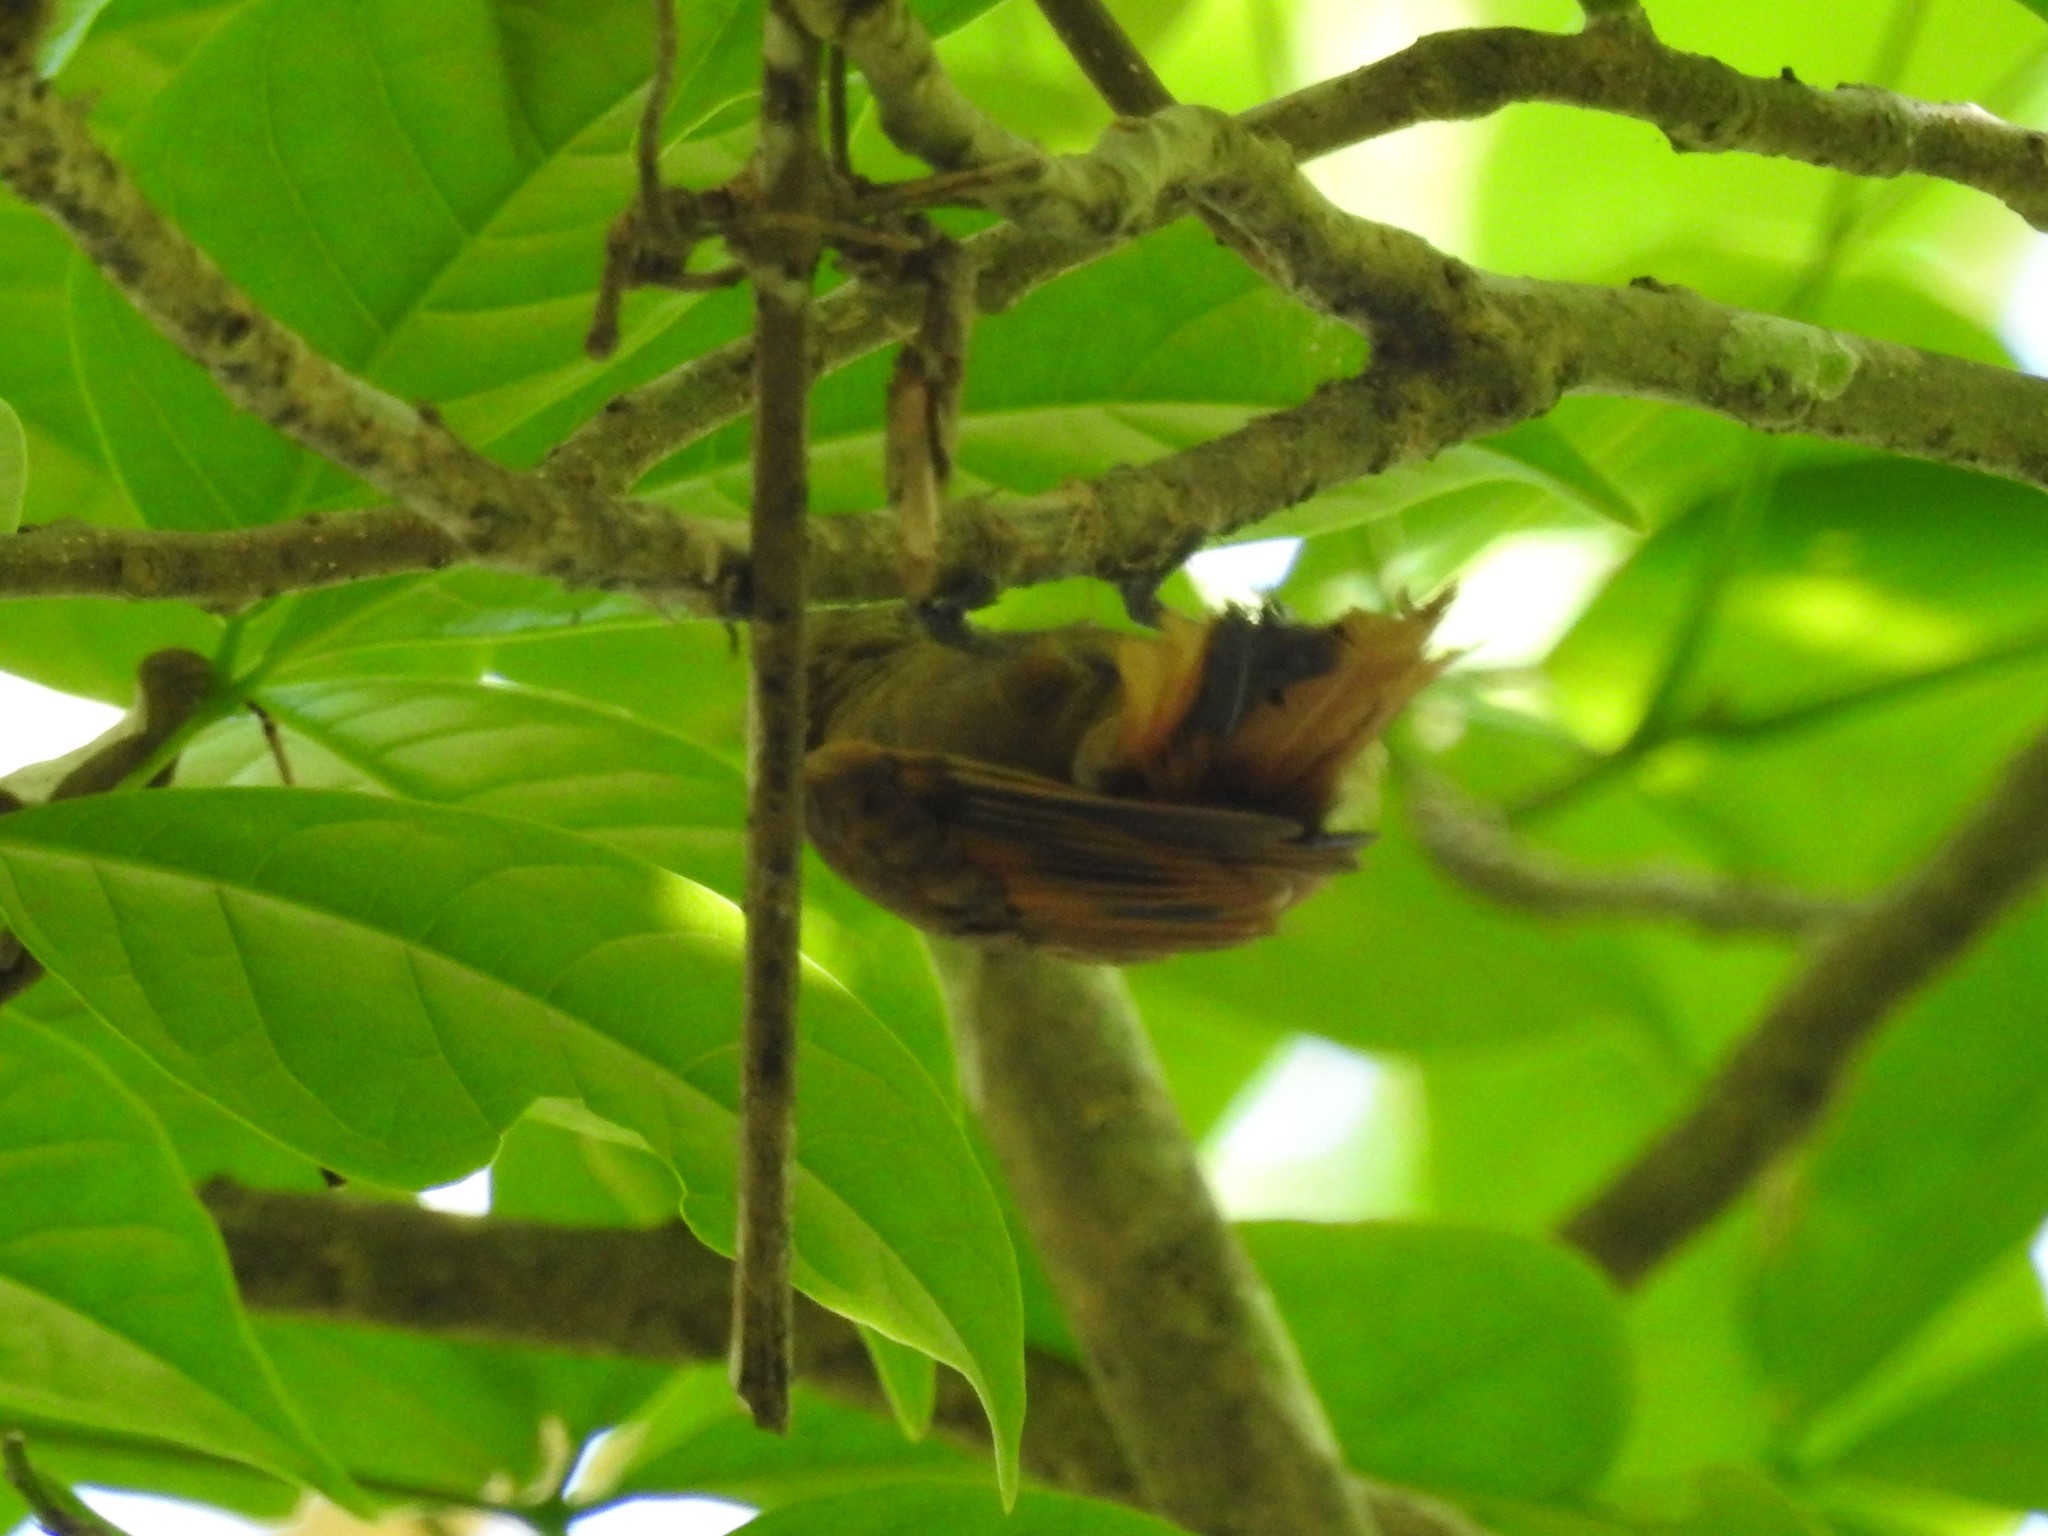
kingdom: Animalia
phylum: Chordata
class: Aves
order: Passeriformes
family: Furnariidae
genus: Xenops
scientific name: Xenops minutus
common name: Plain xenops
